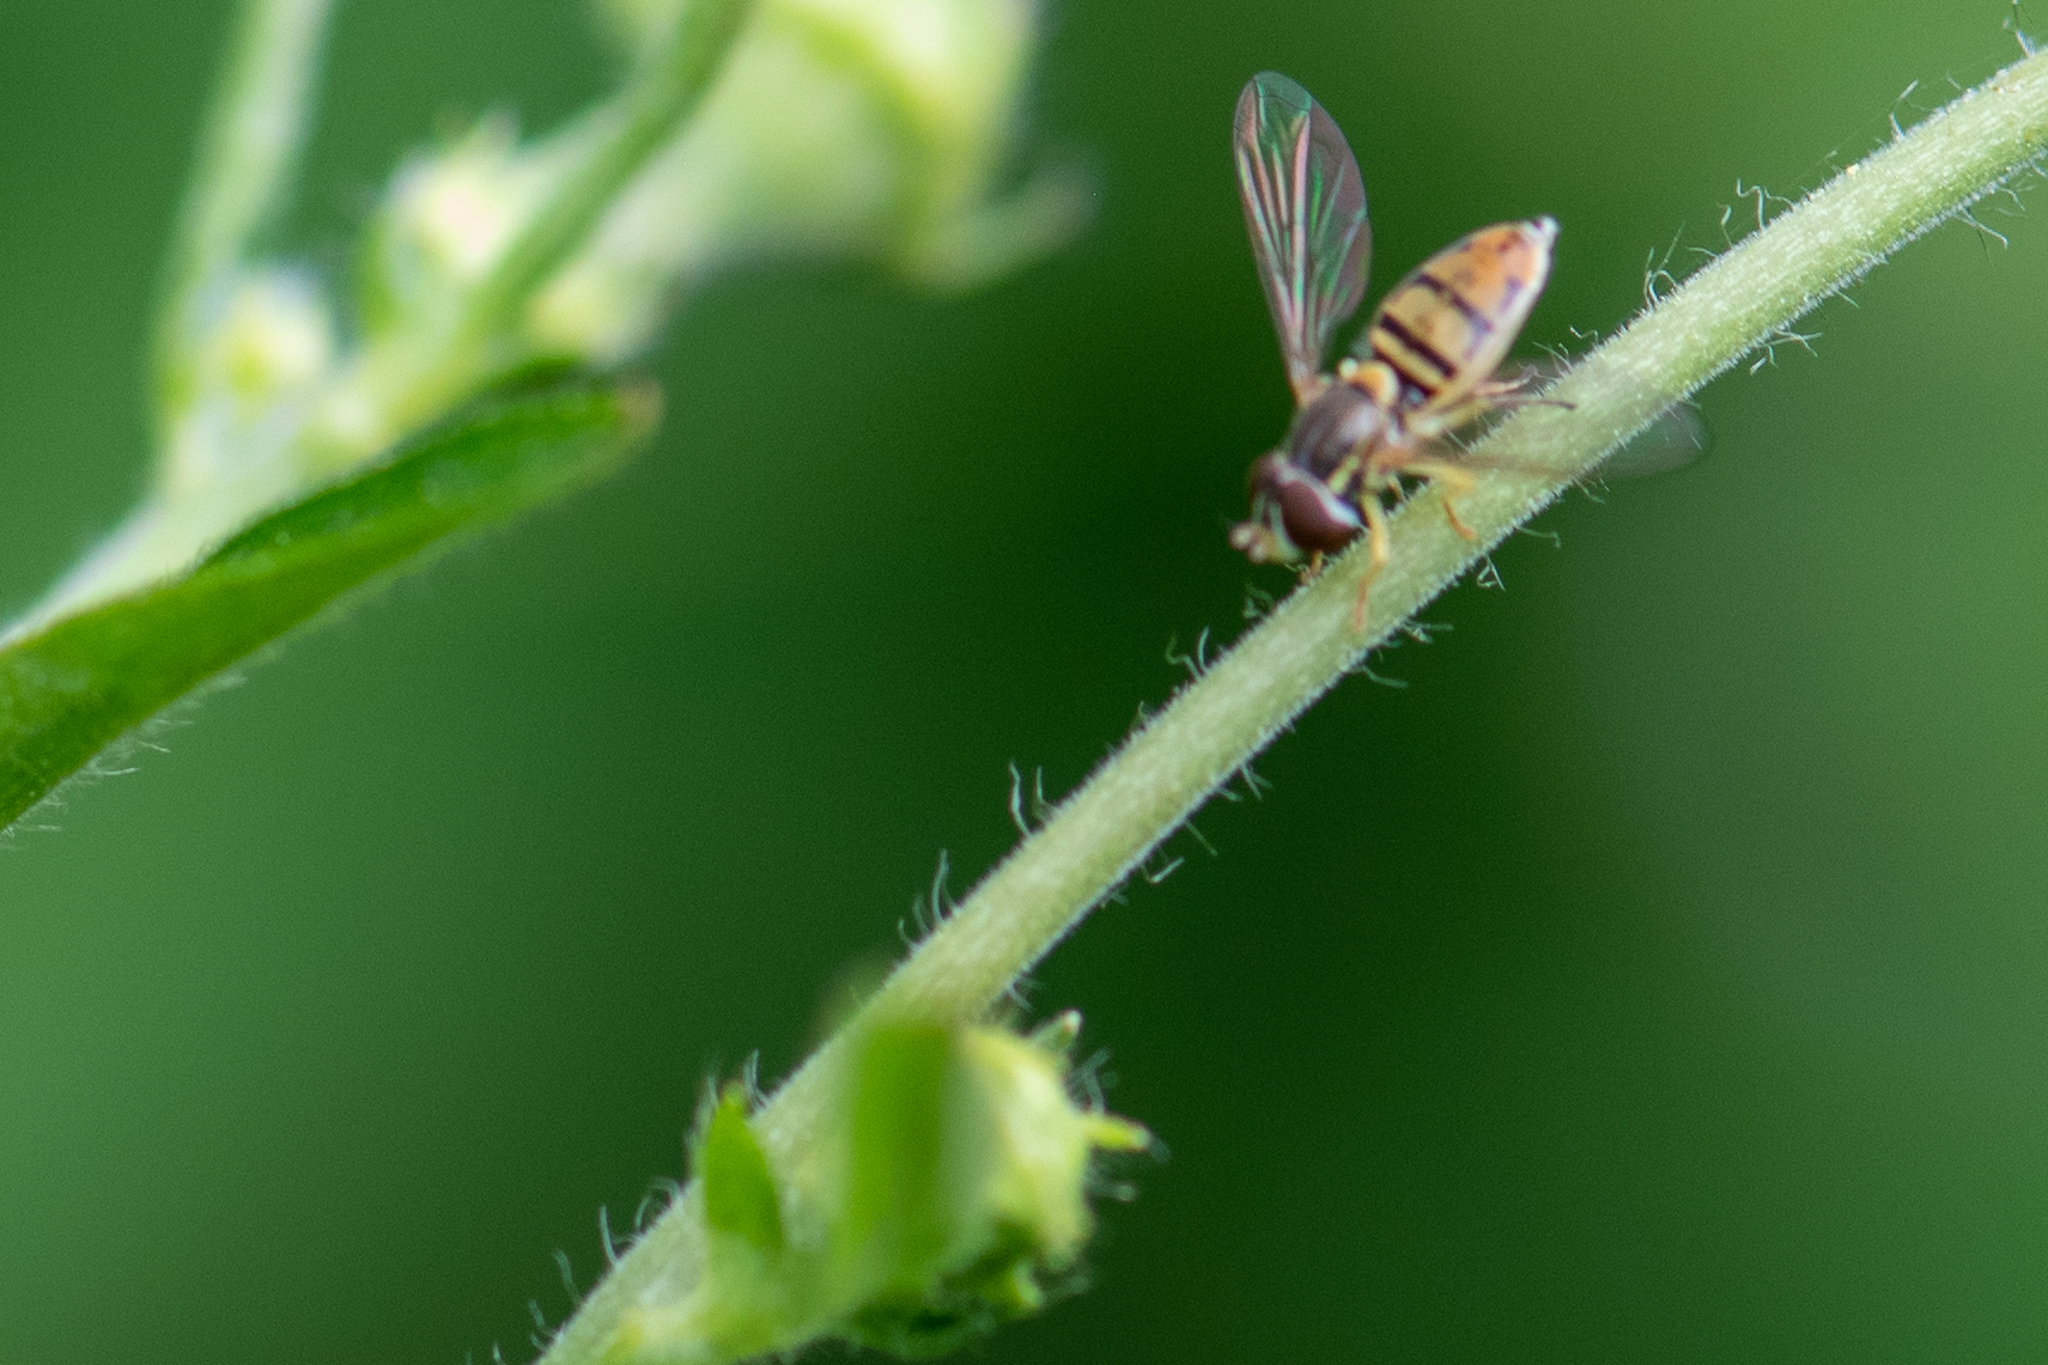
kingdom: Animalia
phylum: Arthropoda
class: Insecta
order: Diptera
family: Syrphidae
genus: Toxomerus
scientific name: Toxomerus marginatus
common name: Syrphid fly
